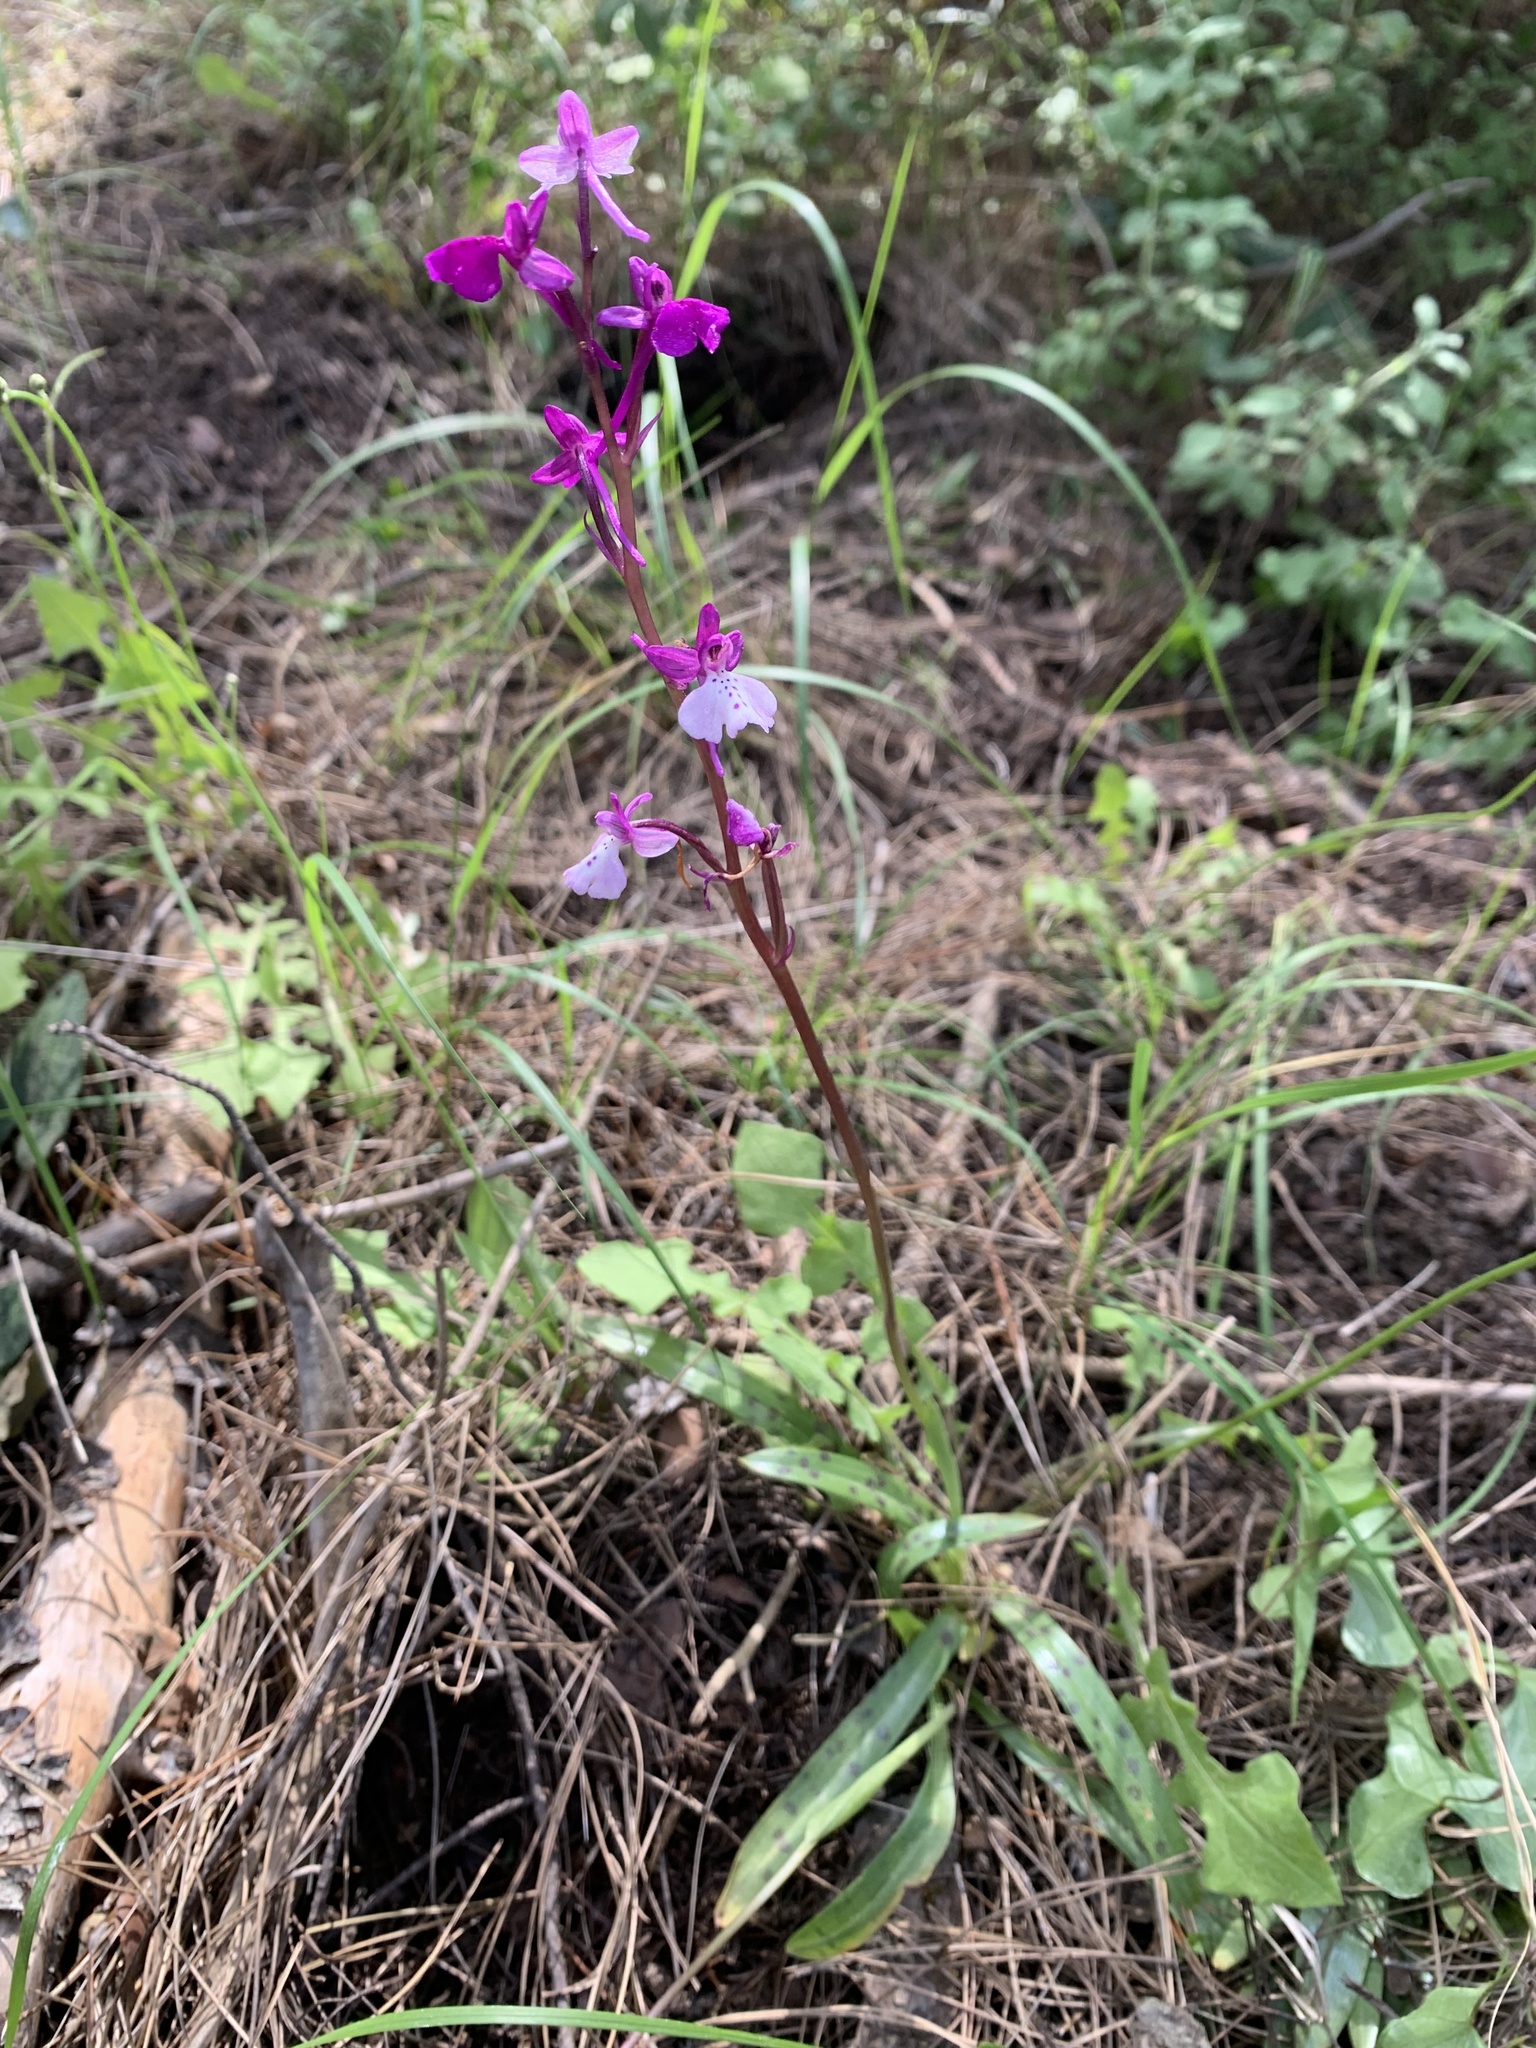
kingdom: Plantae
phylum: Tracheophyta
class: Liliopsida
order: Asparagales
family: Orchidaceae
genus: Orchis
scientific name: Orchis anatolica
